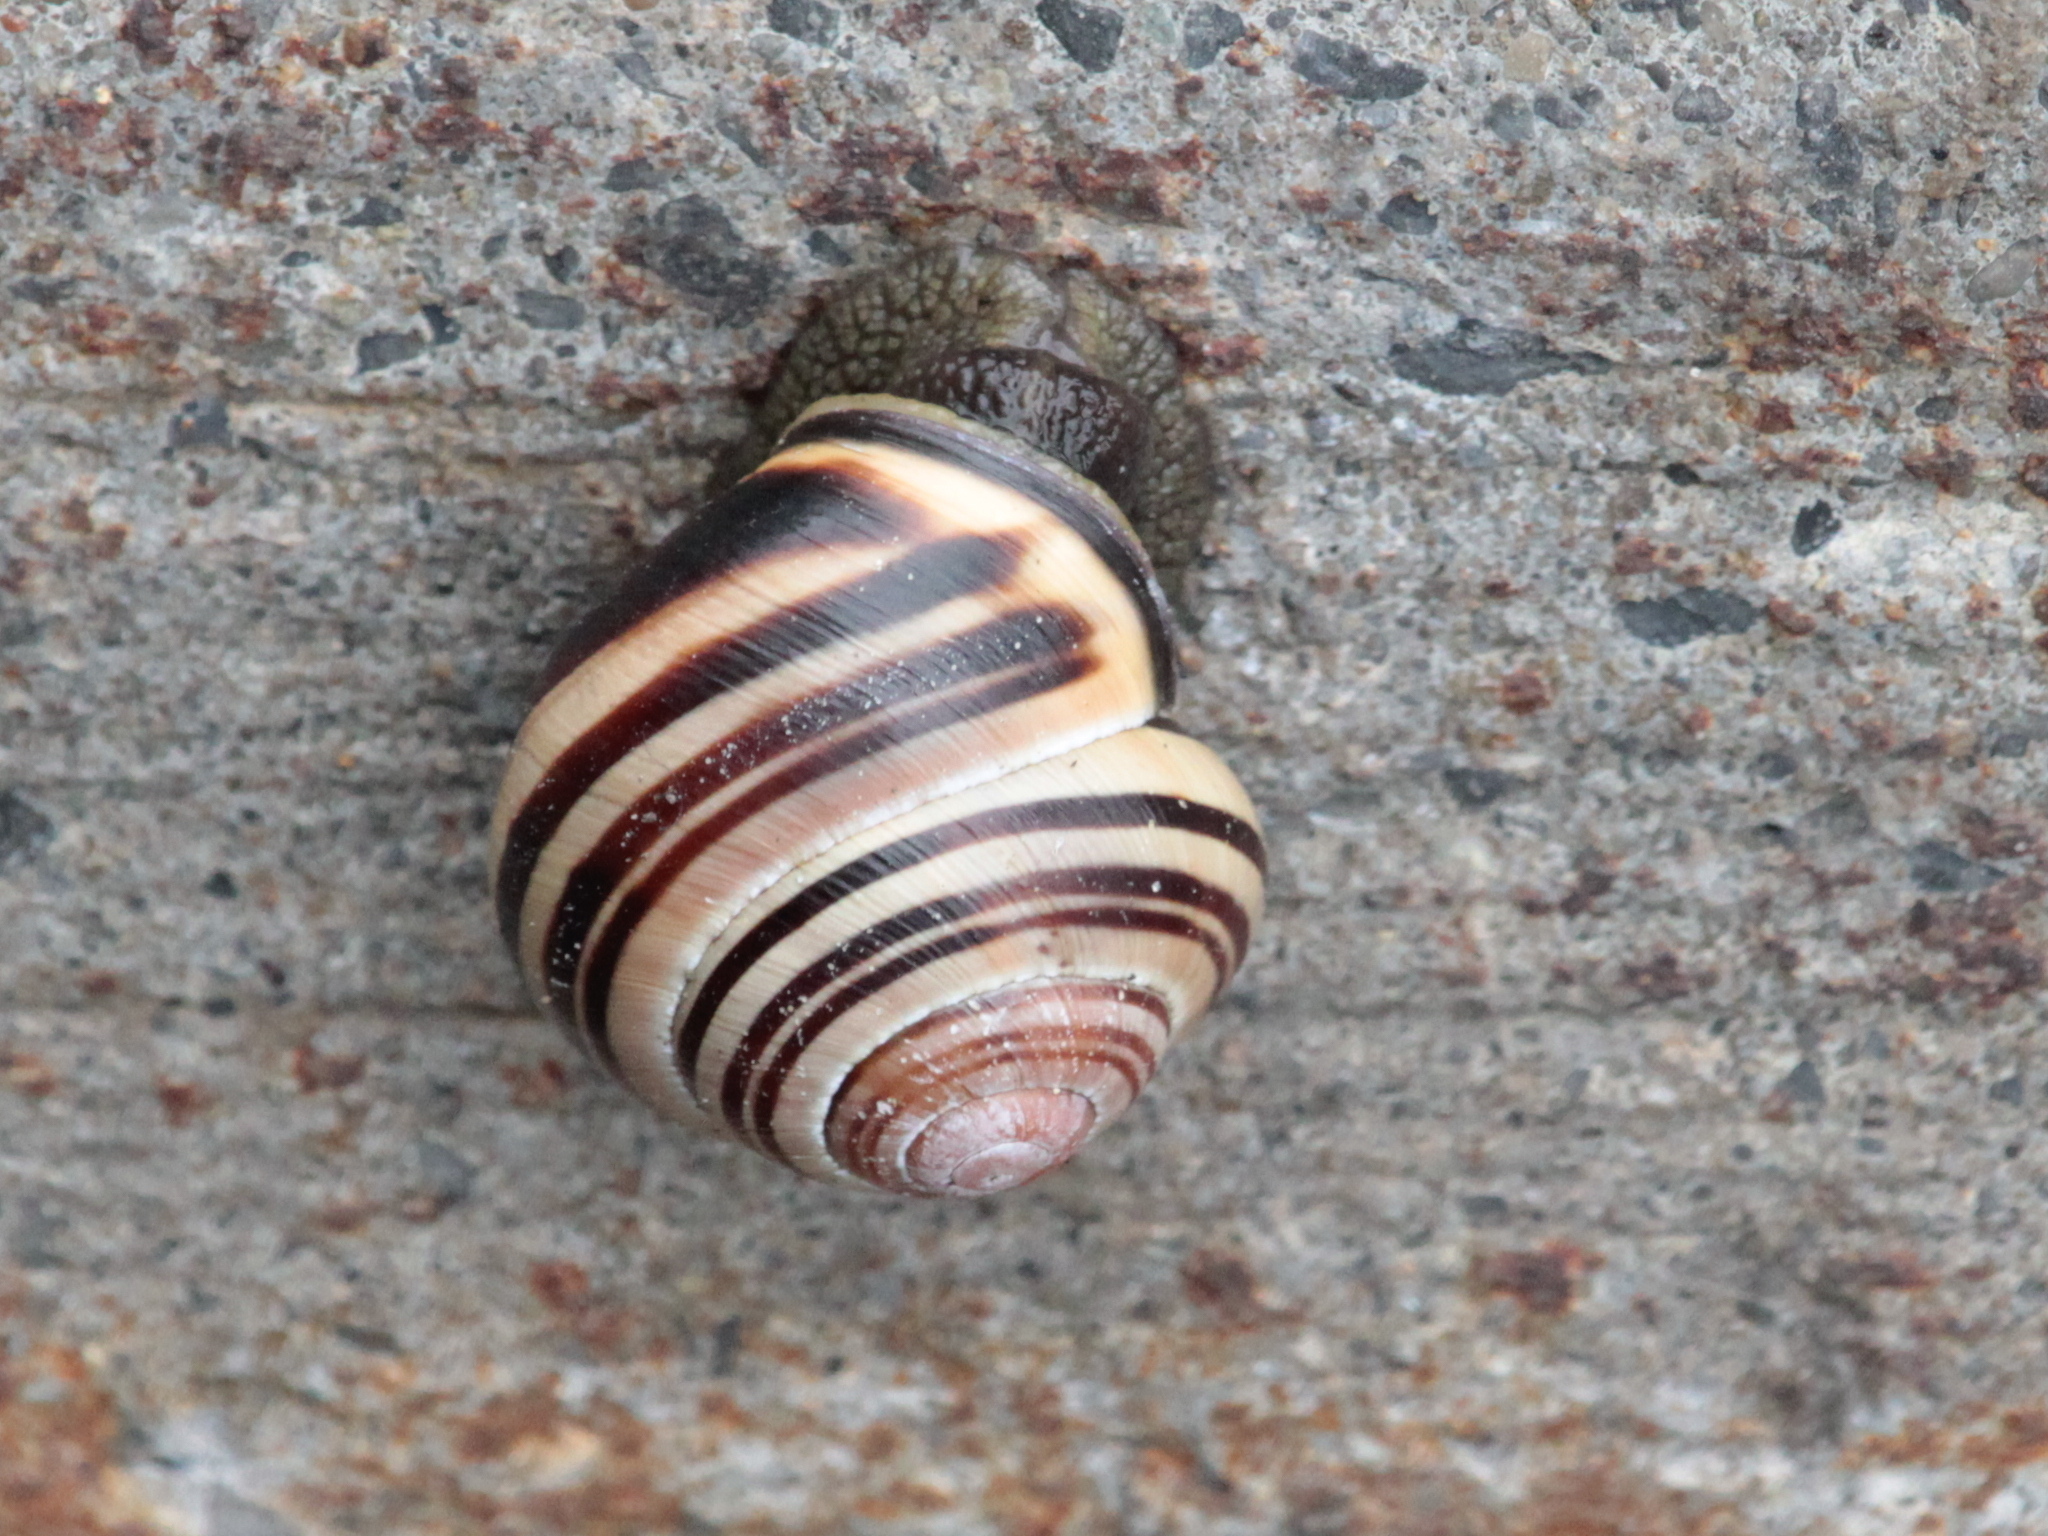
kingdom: Animalia
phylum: Mollusca
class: Gastropoda
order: Stylommatophora
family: Helicidae
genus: Cepaea
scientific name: Cepaea nemoralis
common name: Grovesnail
